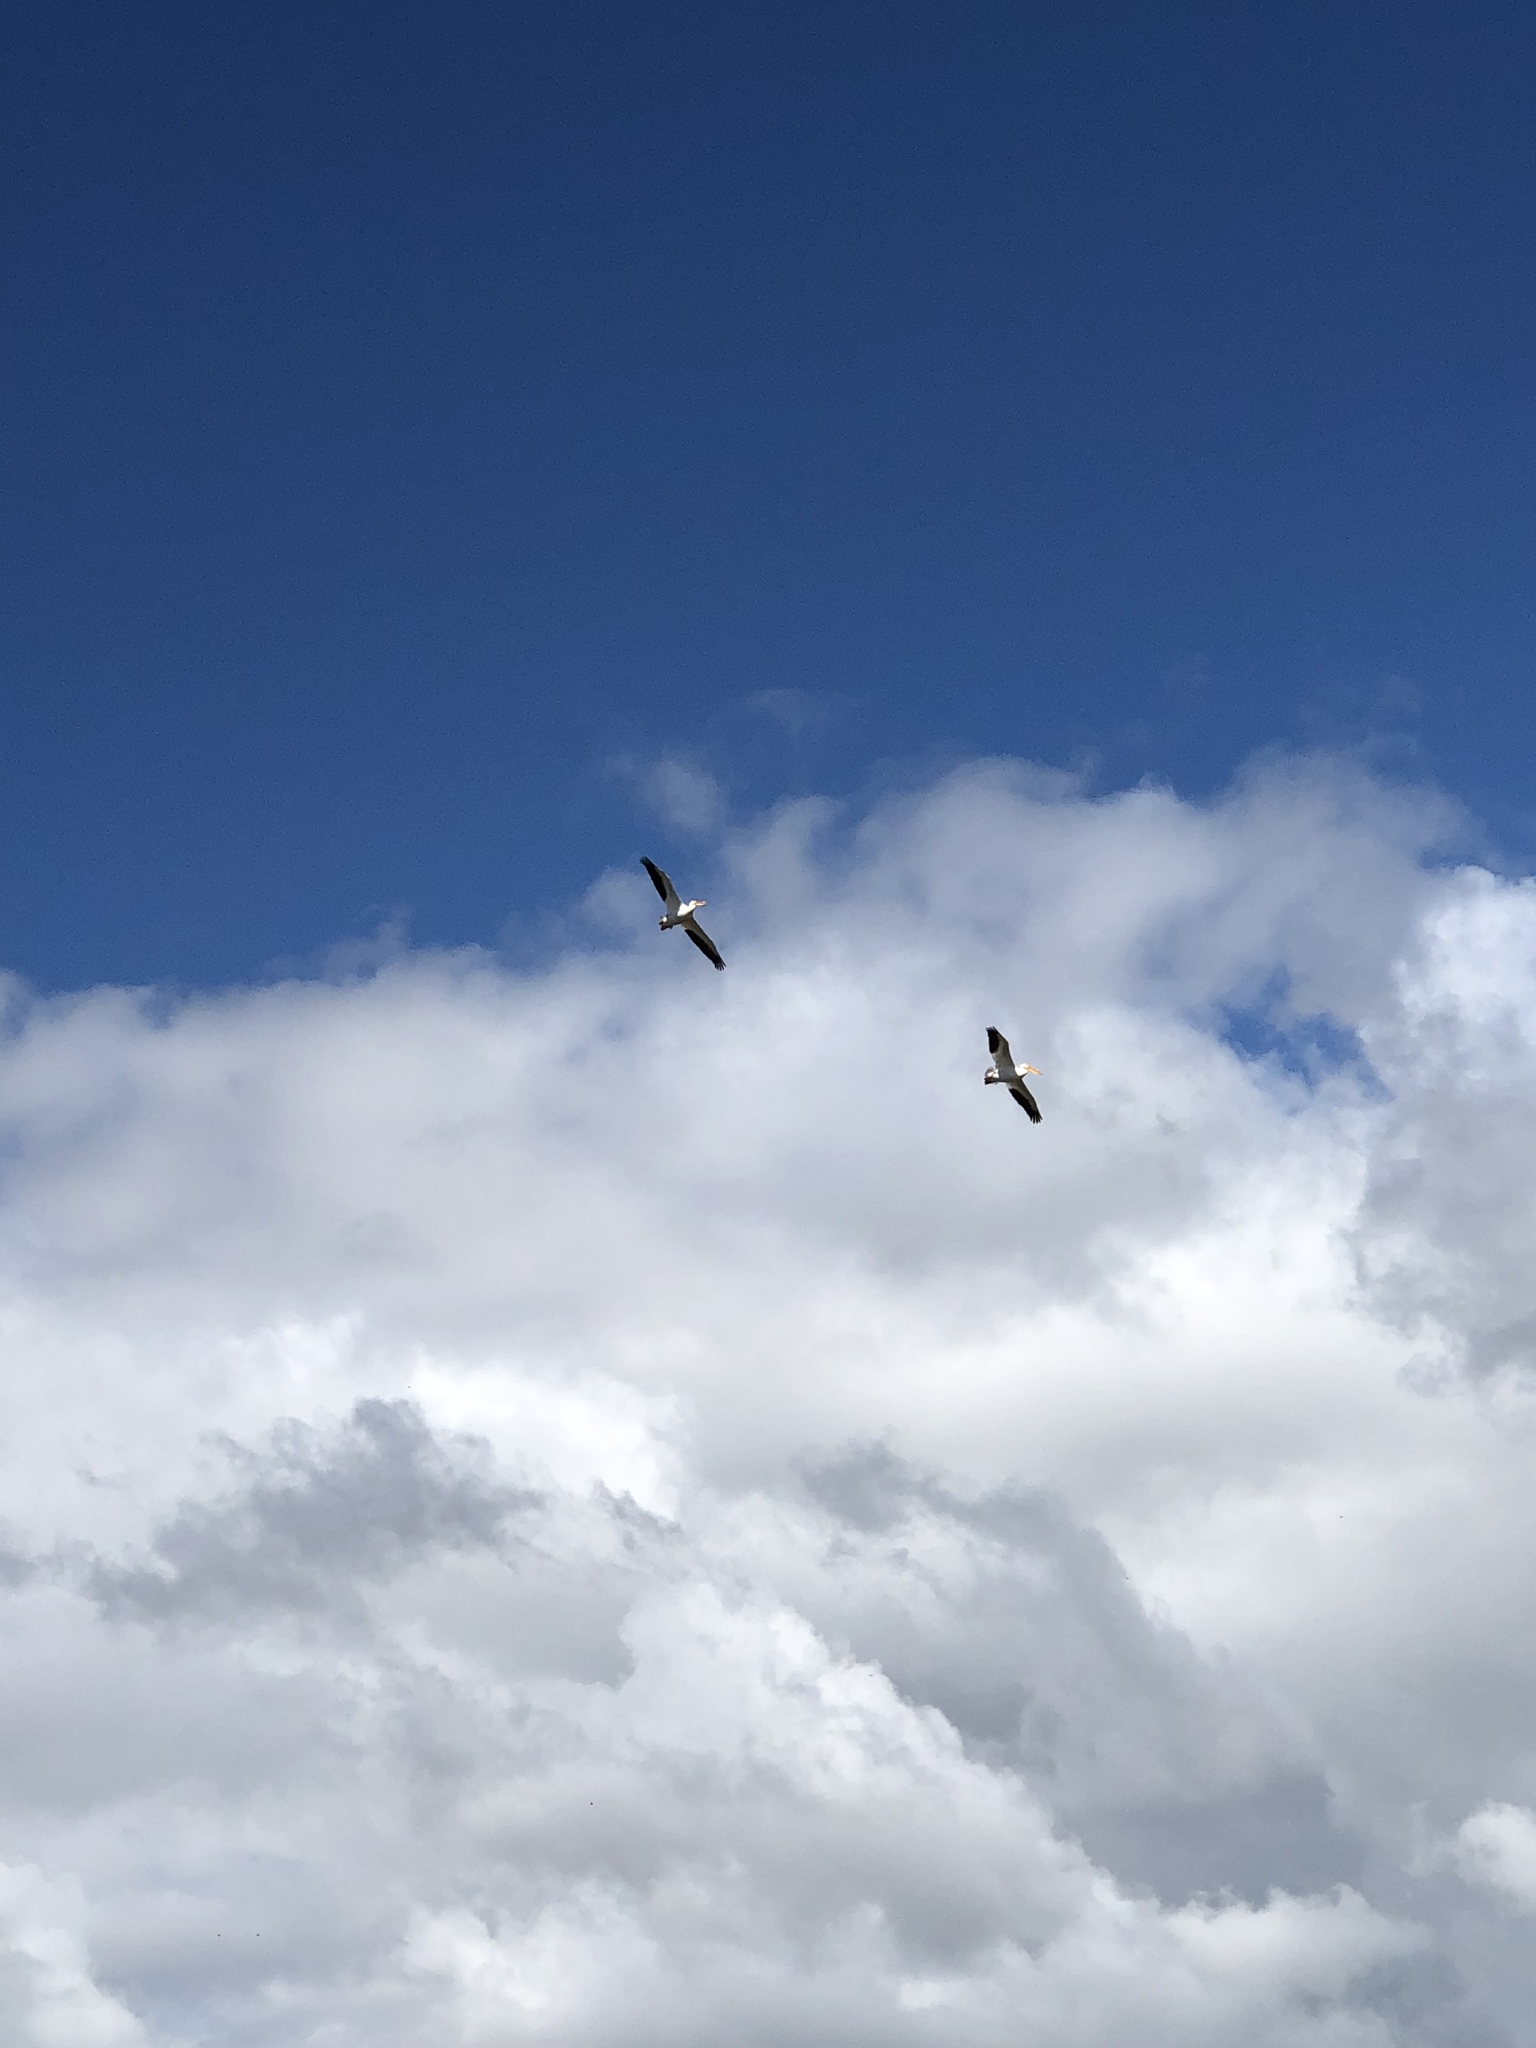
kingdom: Animalia
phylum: Chordata
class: Aves
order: Pelecaniformes
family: Pelecanidae
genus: Pelecanus
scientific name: Pelecanus erythrorhynchos
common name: American white pelican
